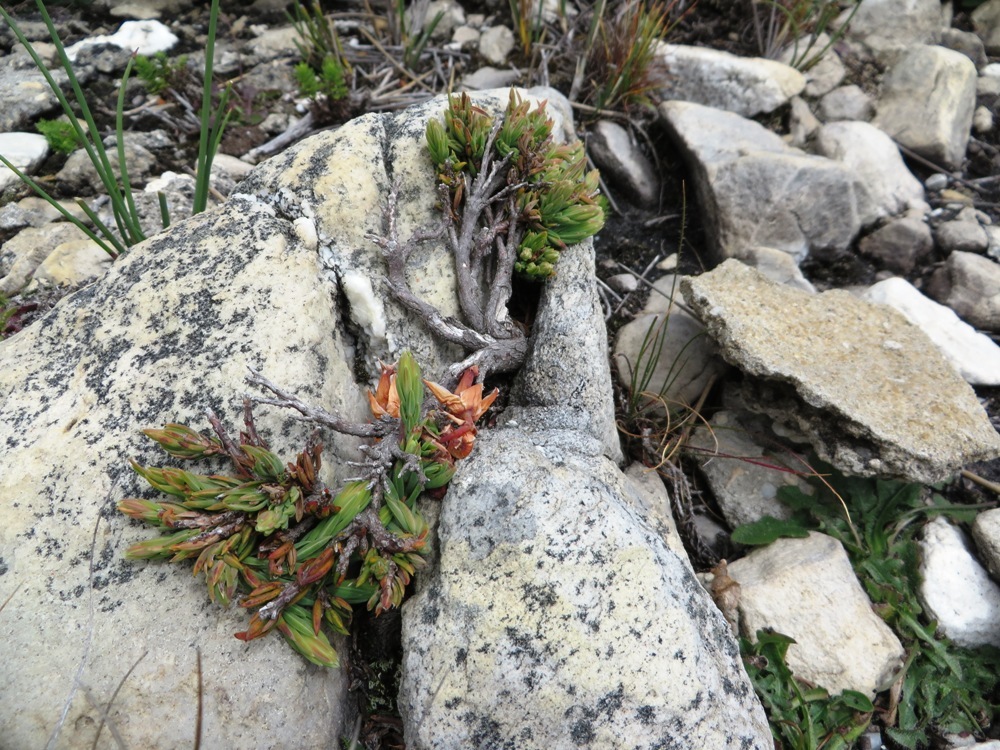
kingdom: Plantae
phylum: Tracheophyta
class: Magnoliopsida
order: Ericales
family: Ericaceae
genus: Erica
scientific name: Erica alfredii
